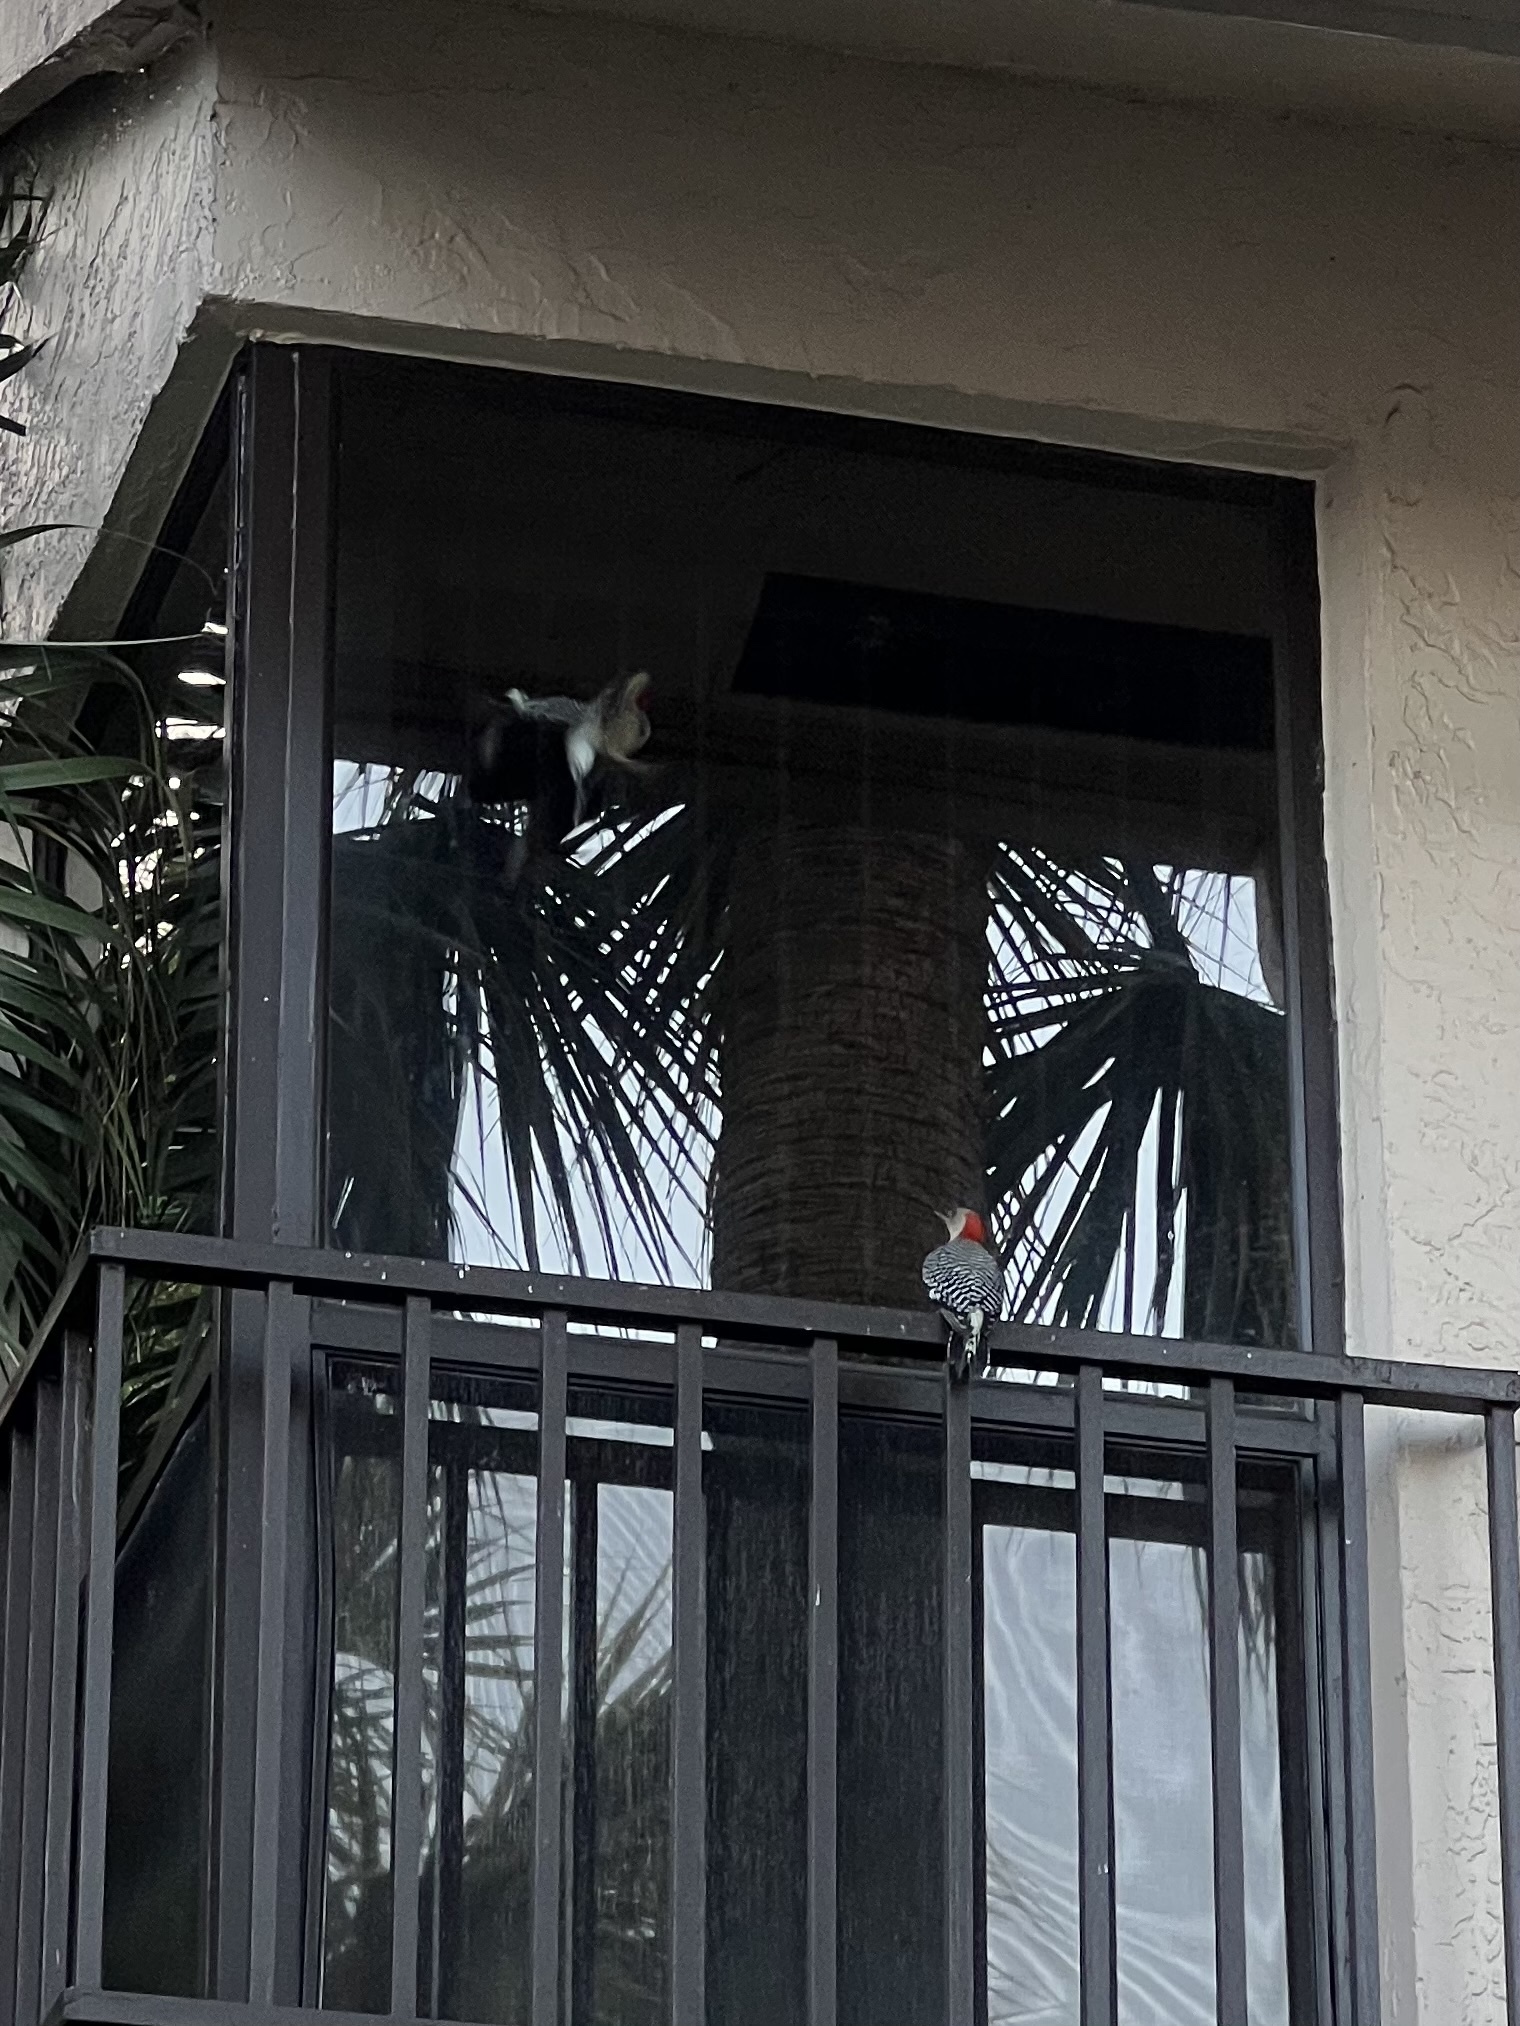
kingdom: Animalia
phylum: Chordata
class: Aves
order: Piciformes
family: Picidae
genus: Melanerpes
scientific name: Melanerpes carolinus
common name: Red-bellied woodpecker
